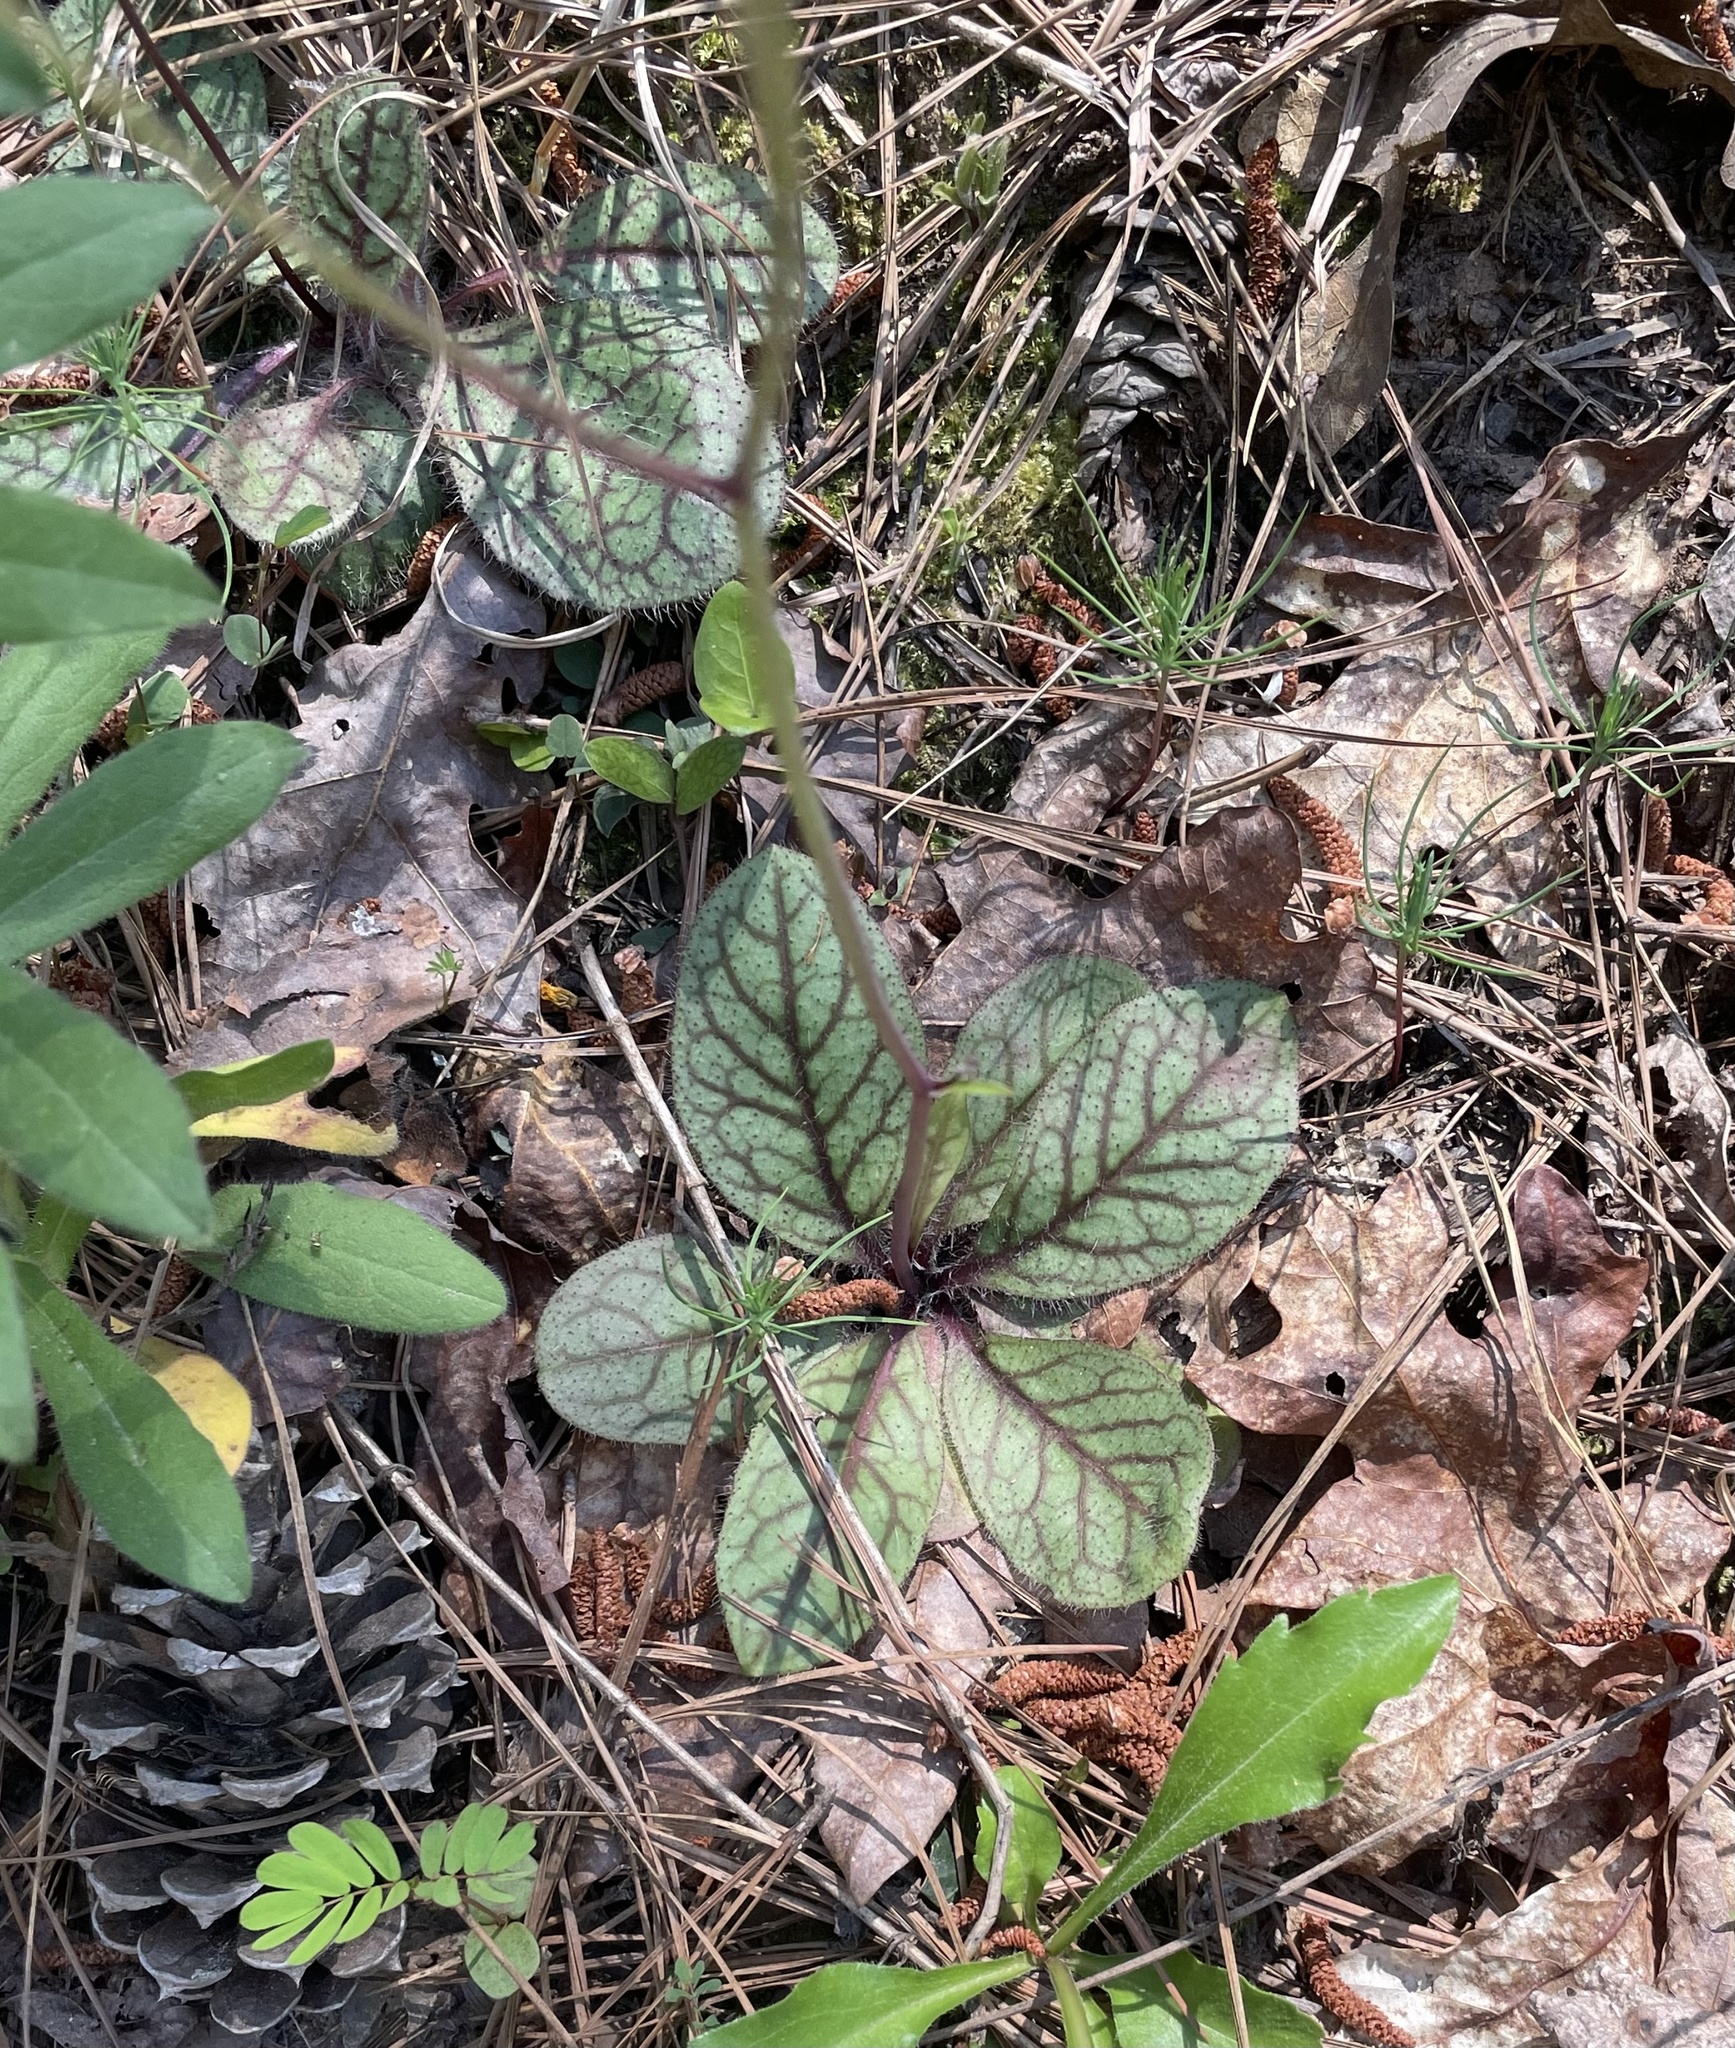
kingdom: Plantae
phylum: Tracheophyta
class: Magnoliopsida
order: Asterales
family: Asteraceae
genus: Hieracium
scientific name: Hieracium venosum
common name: Rattlesnake hawkweed
